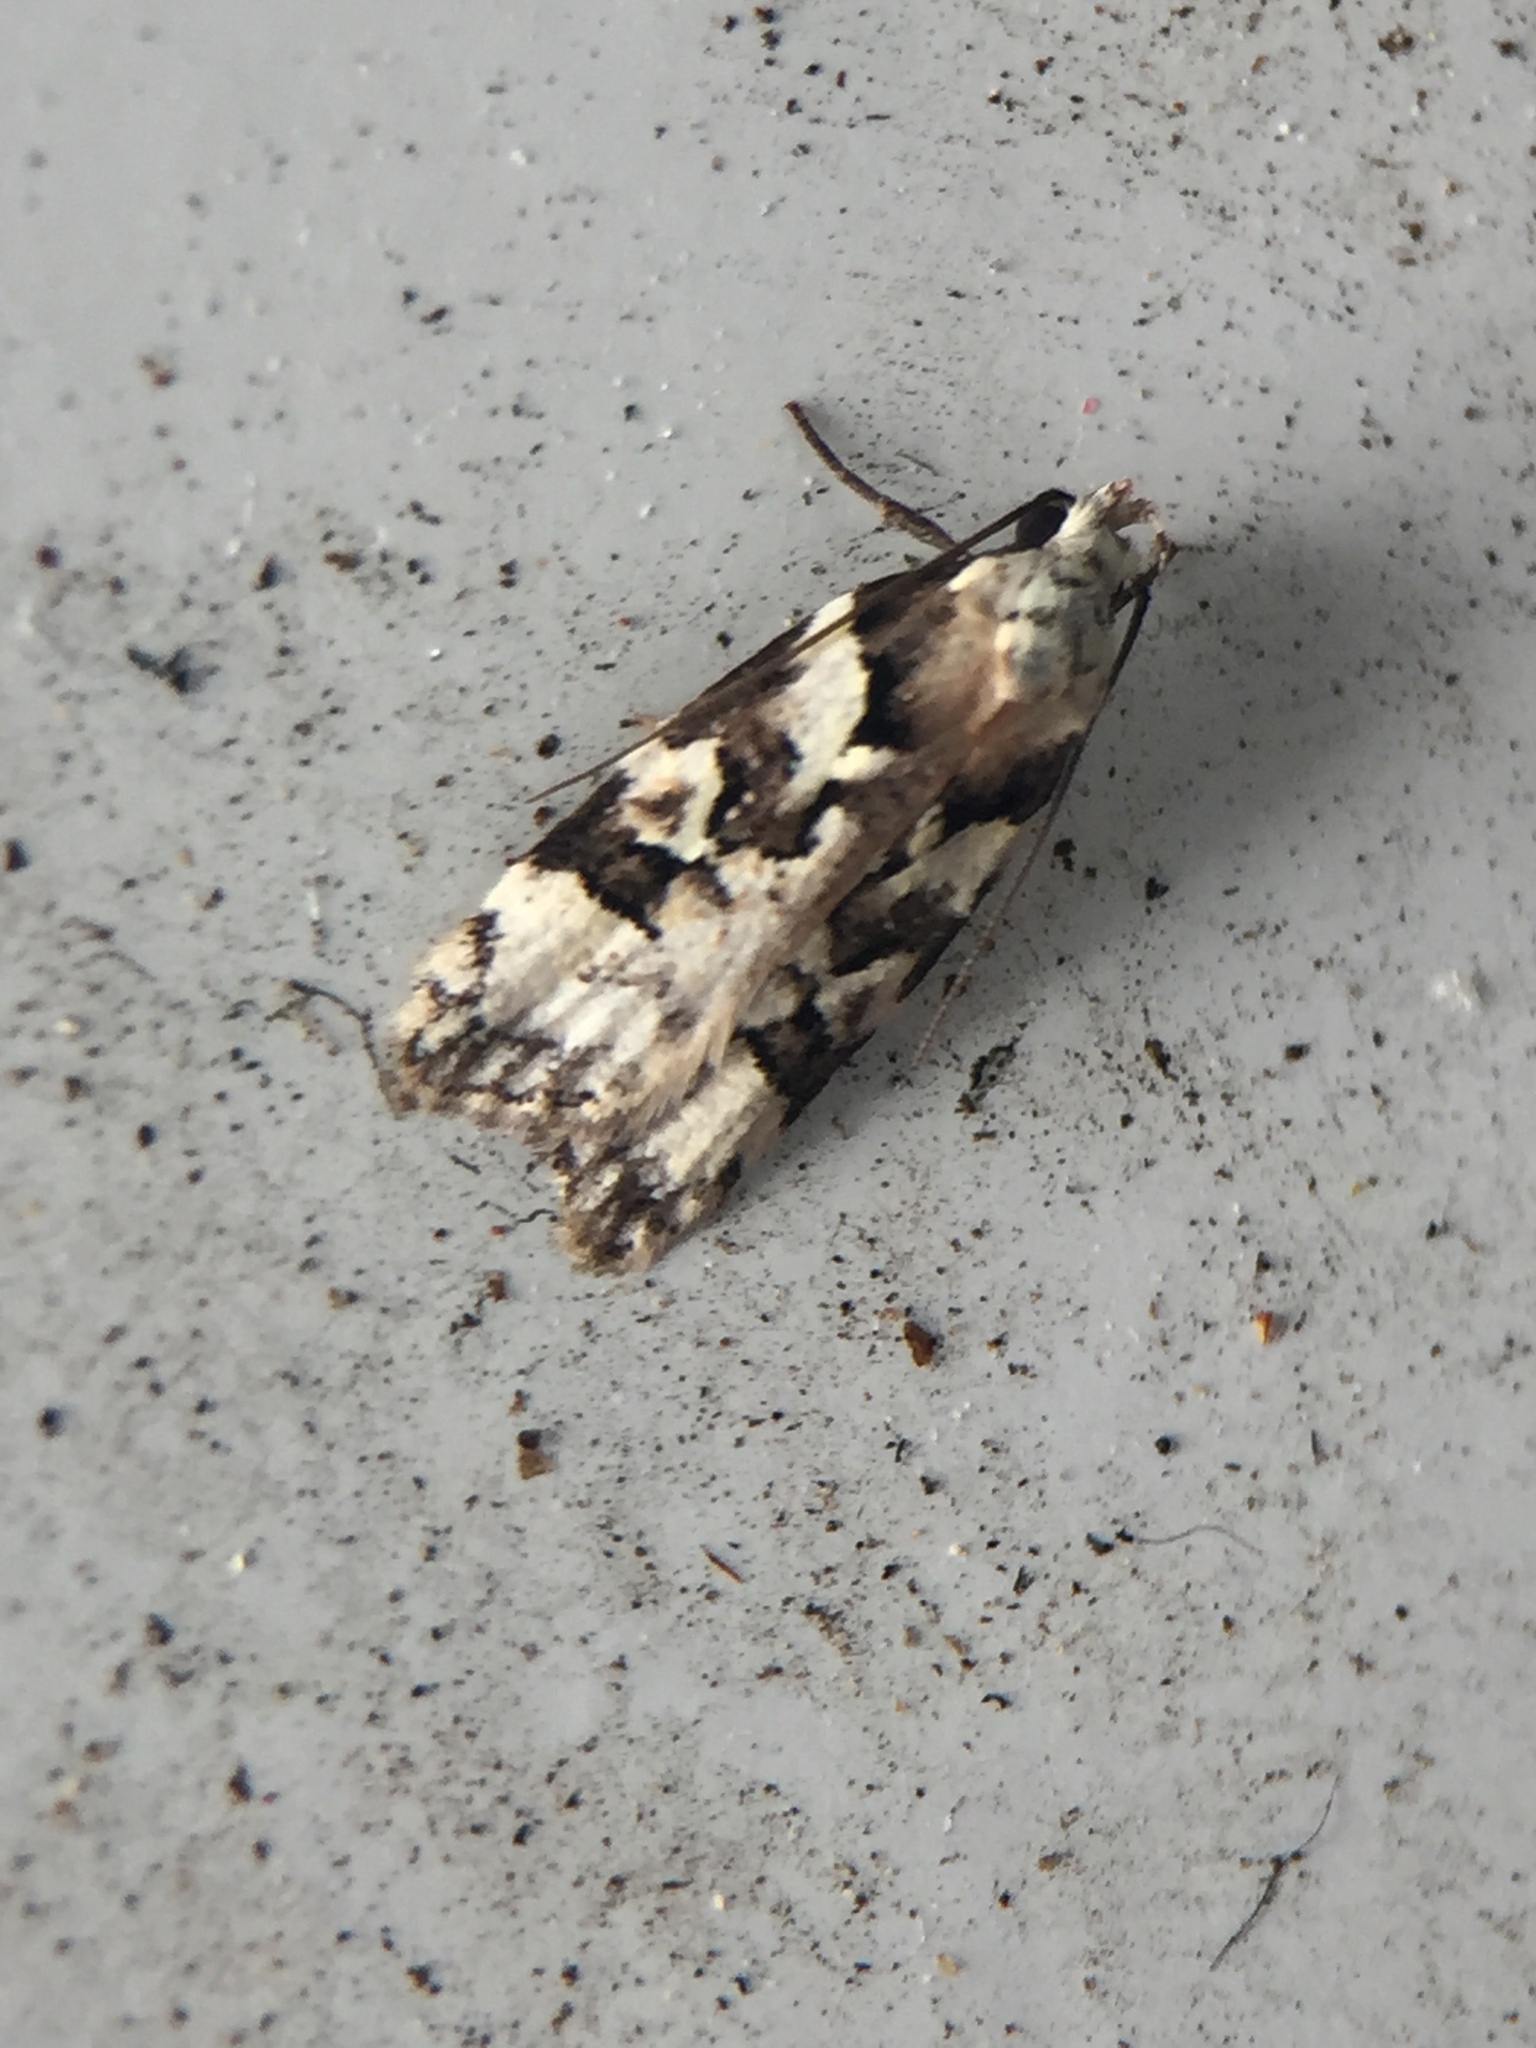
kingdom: Animalia
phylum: Arthropoda
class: Insecta
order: Lepidoptera
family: Oecophoridae
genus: Izatha
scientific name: Izatha epiphanes
